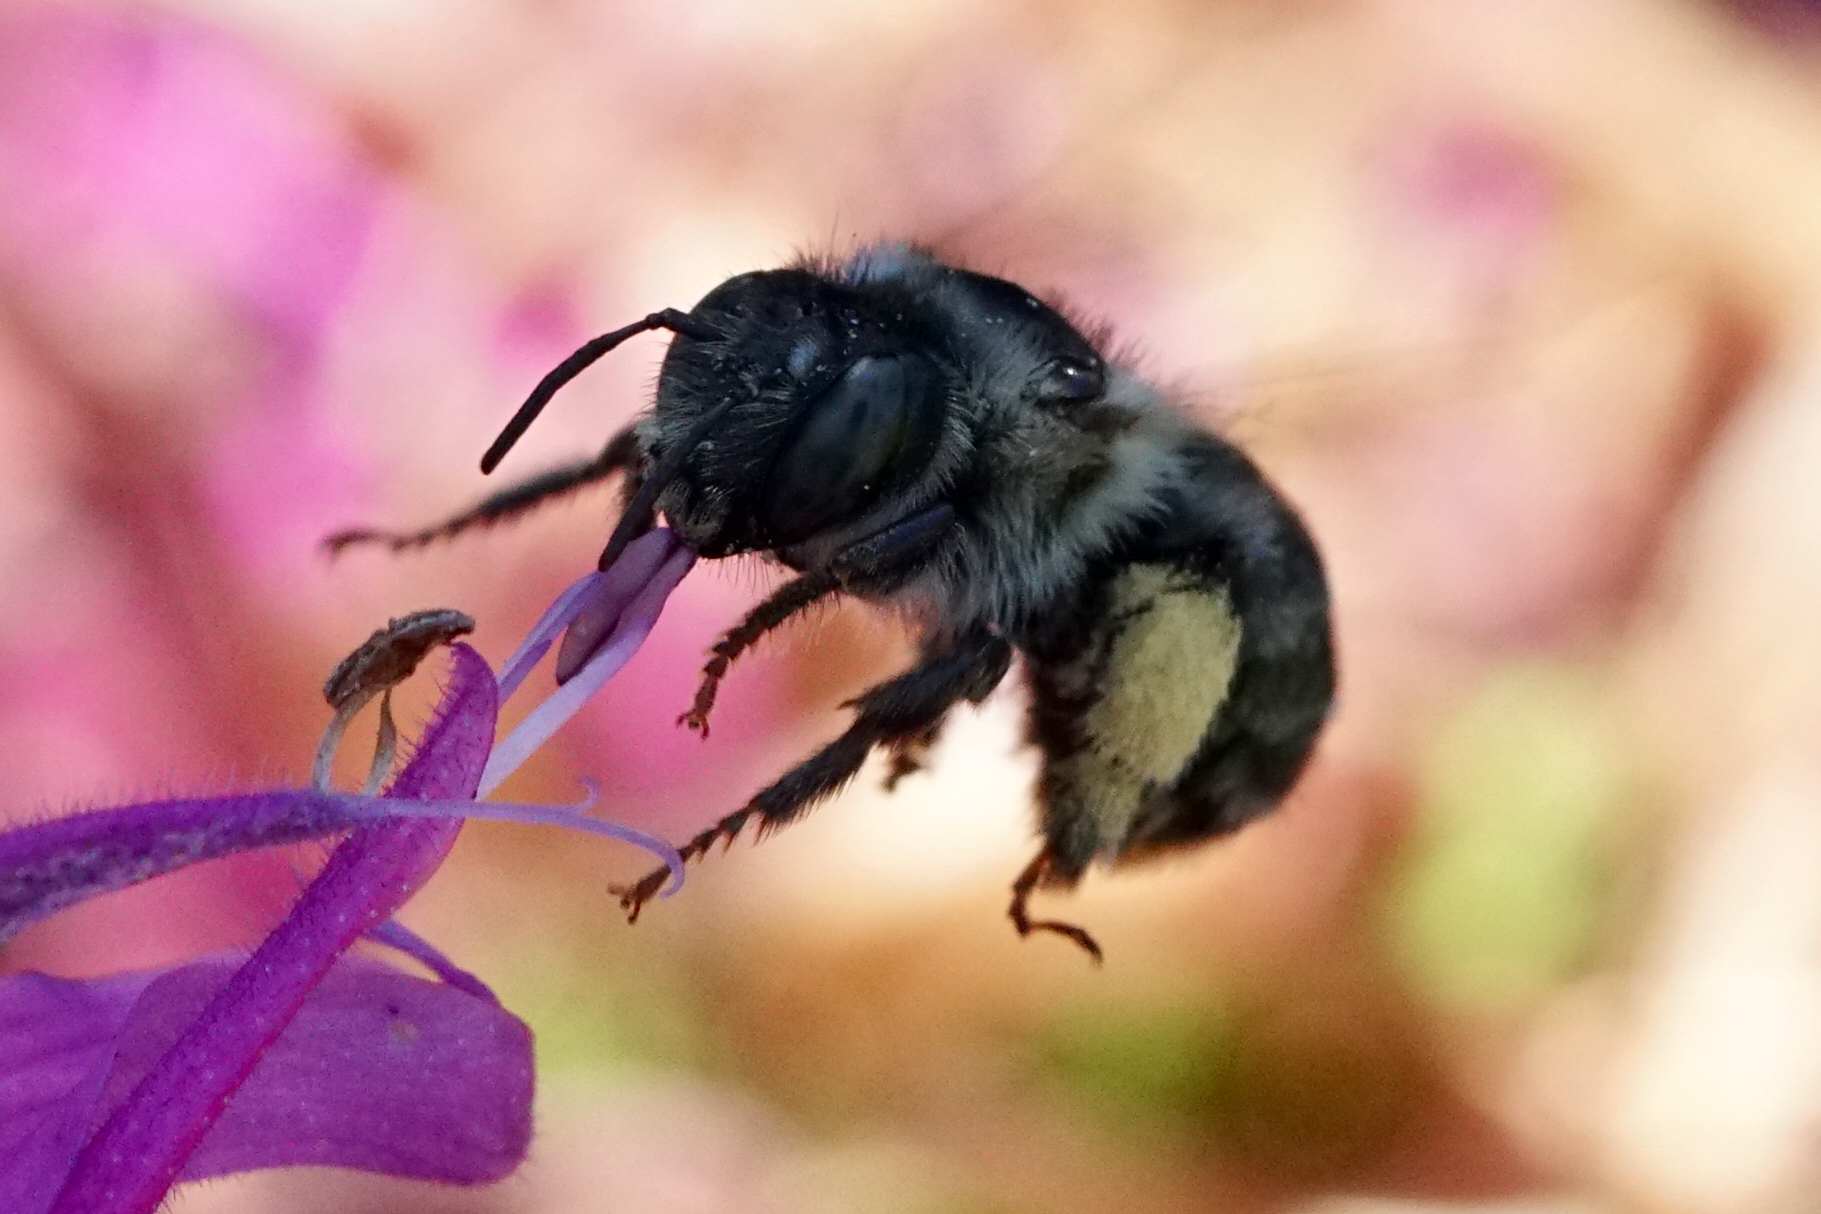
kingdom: Animalia
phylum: Arthropoda
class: Insecta
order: Hymenoptera
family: Apidae
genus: Anthophora
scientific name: Anthophora terminalis
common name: Orange-tipped wood-digger bee
